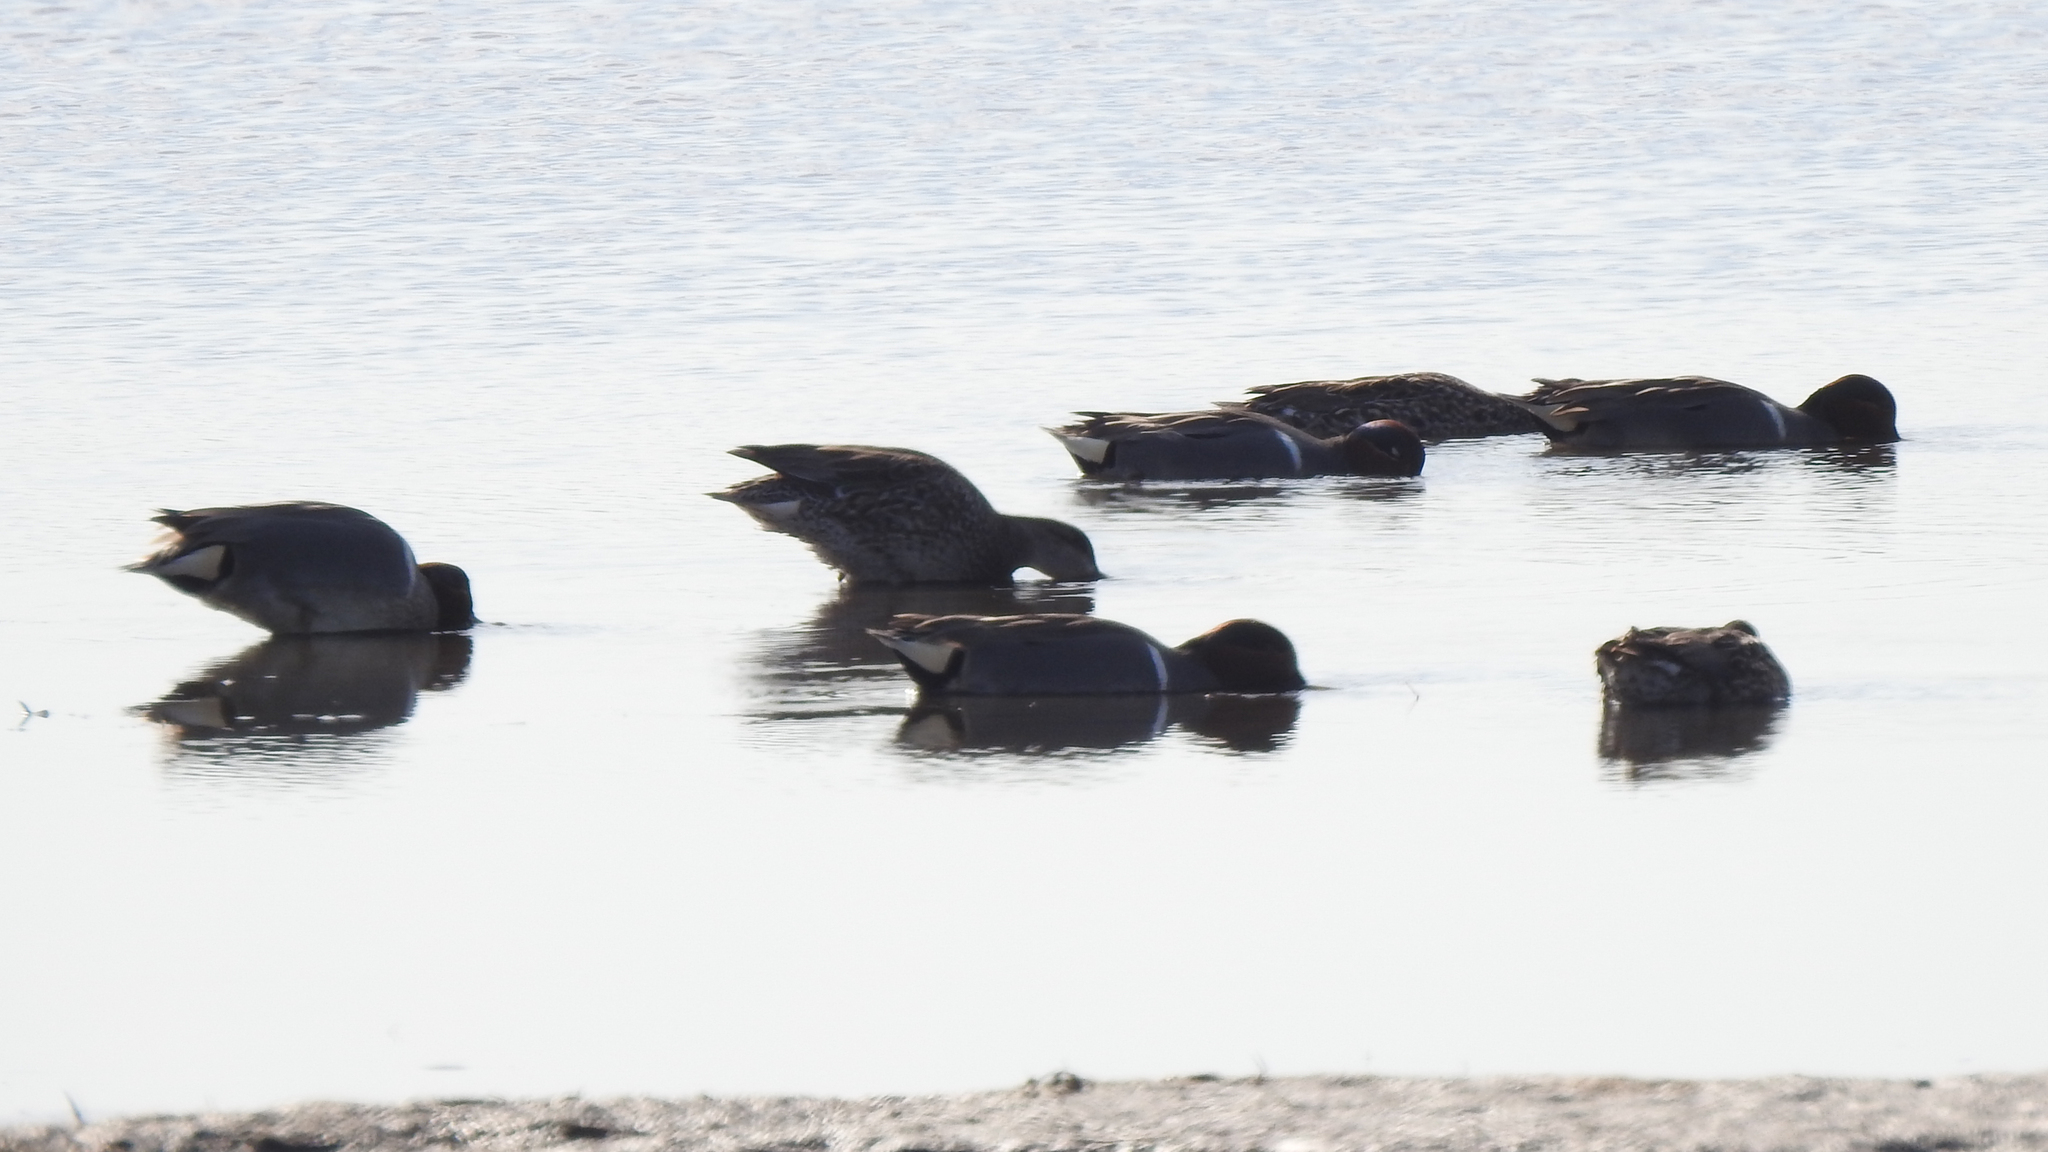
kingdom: Animalia
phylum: Chordata
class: Aves
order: Anseriformes
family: Anatidae
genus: Anas
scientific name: Anas crecca
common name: Eurasian teal
